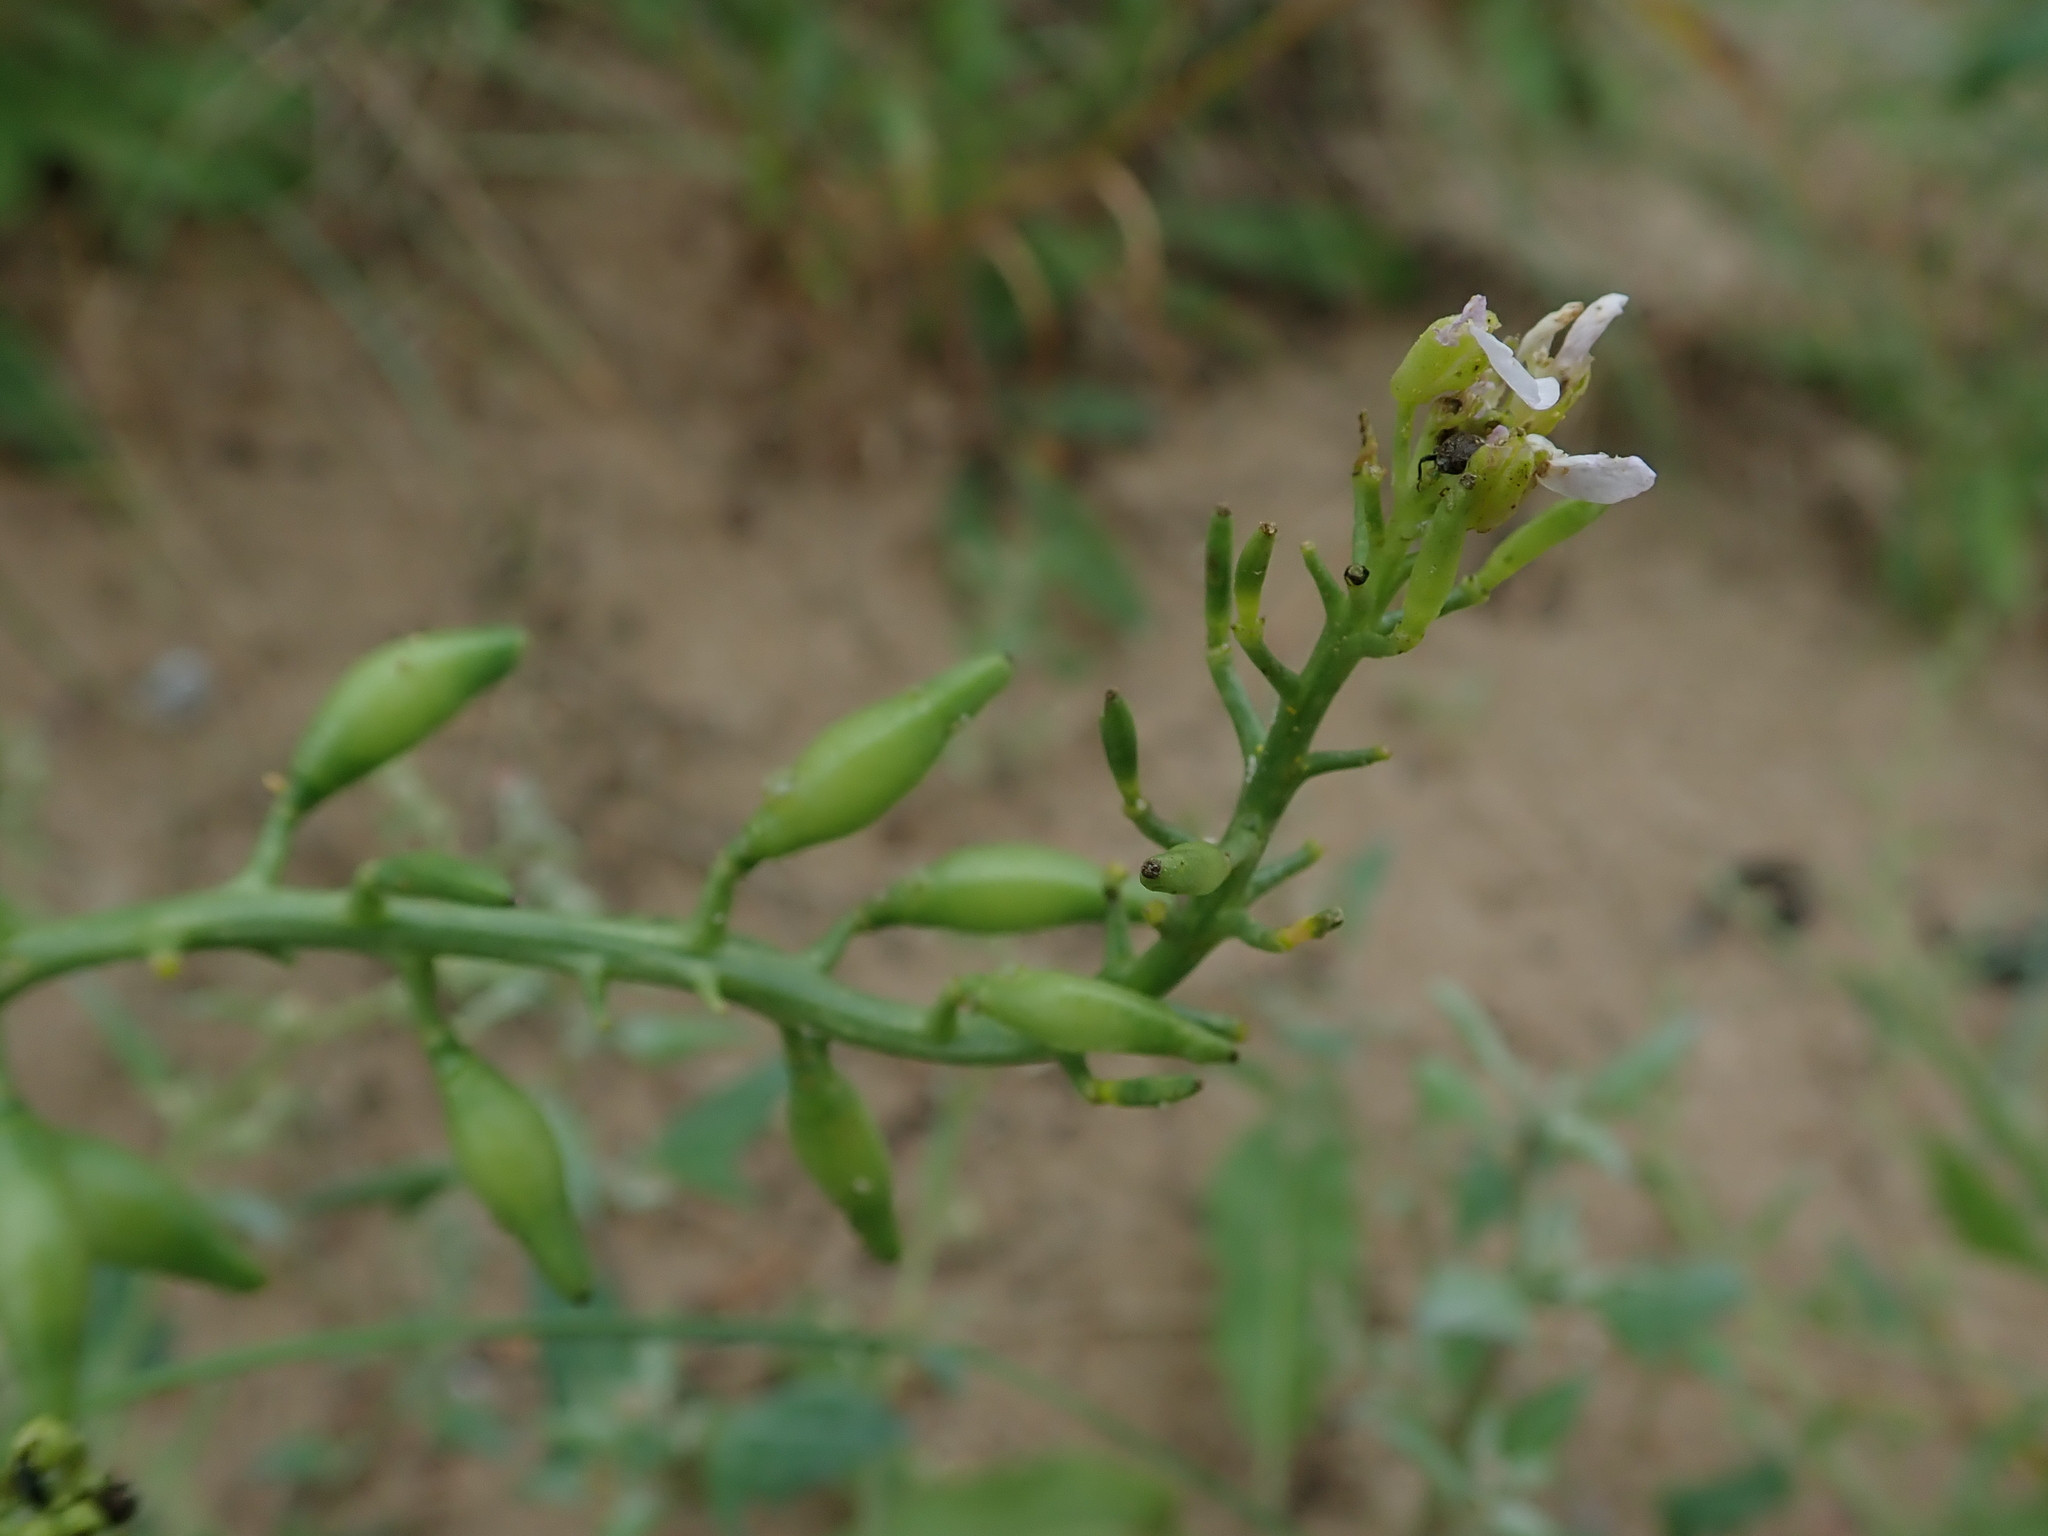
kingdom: Plantae
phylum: Tracheophyta
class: Magnoliopsida
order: Brassicales
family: Brassicaceae
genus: Cakile
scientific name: Cakile maritima
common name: Sea rocket
